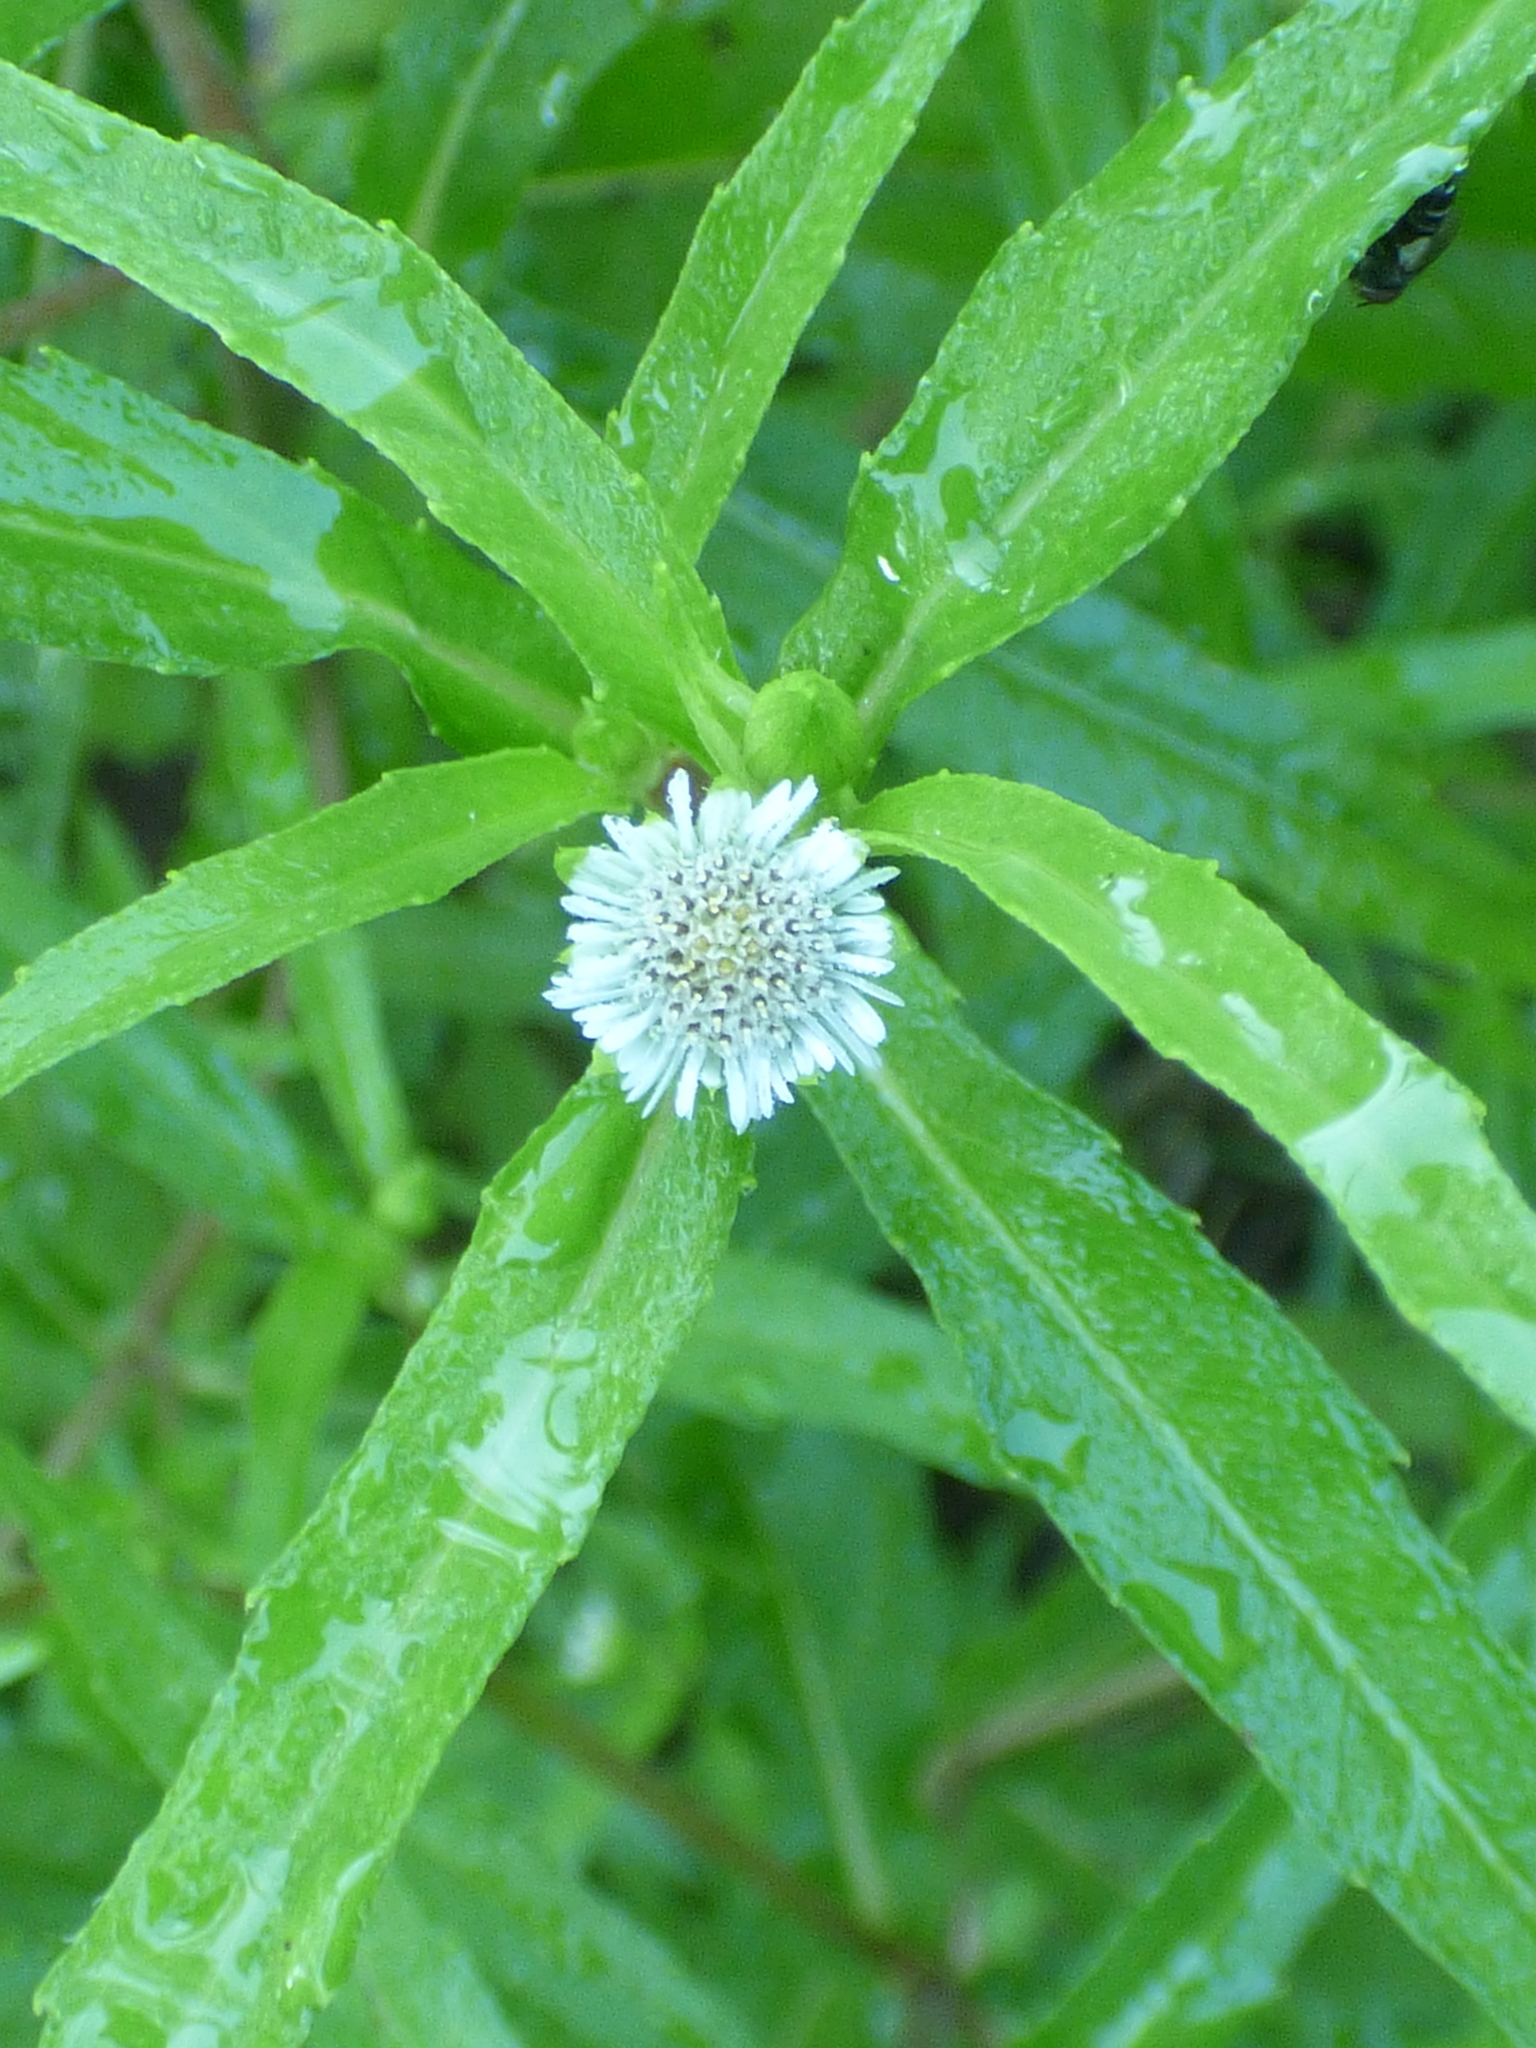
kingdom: Plantae
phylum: Tracheophyta
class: Magnoliopsida
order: Asterales
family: Asteraceae
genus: Eclipta
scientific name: Eclipta prostrata
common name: False daisy
